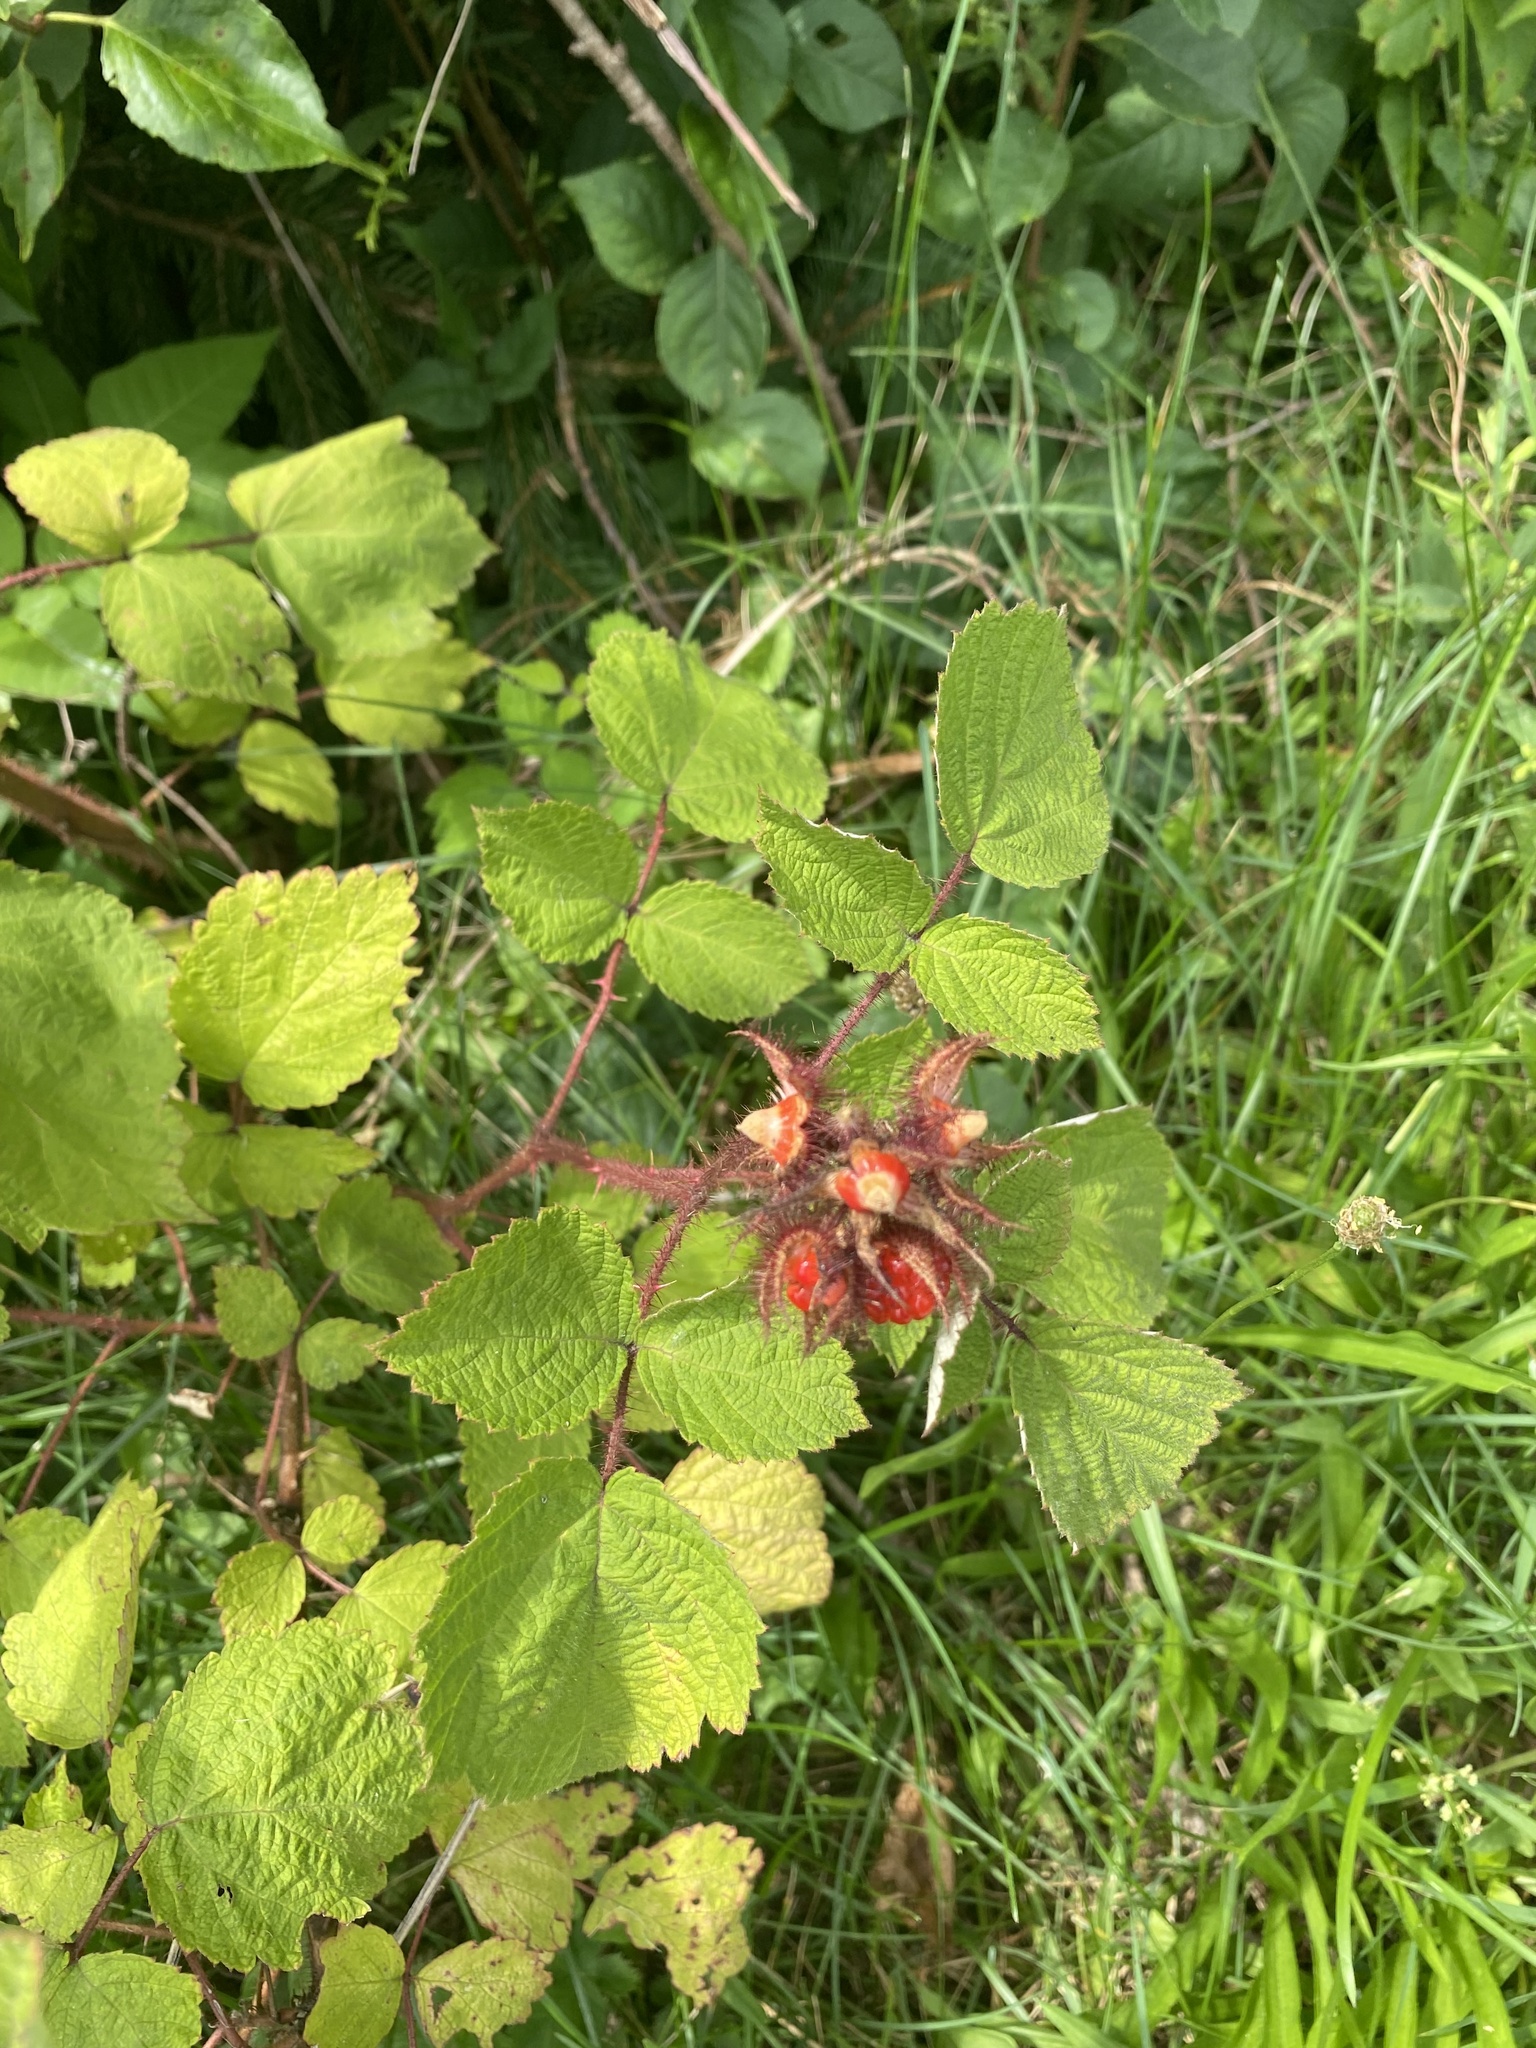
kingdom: Plantae
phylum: Tracheophyta
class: Magnoliopsida
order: Rosales
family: Rosaceae
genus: Rubus
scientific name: Rubus phoenicolasius
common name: Japanese wineberry
